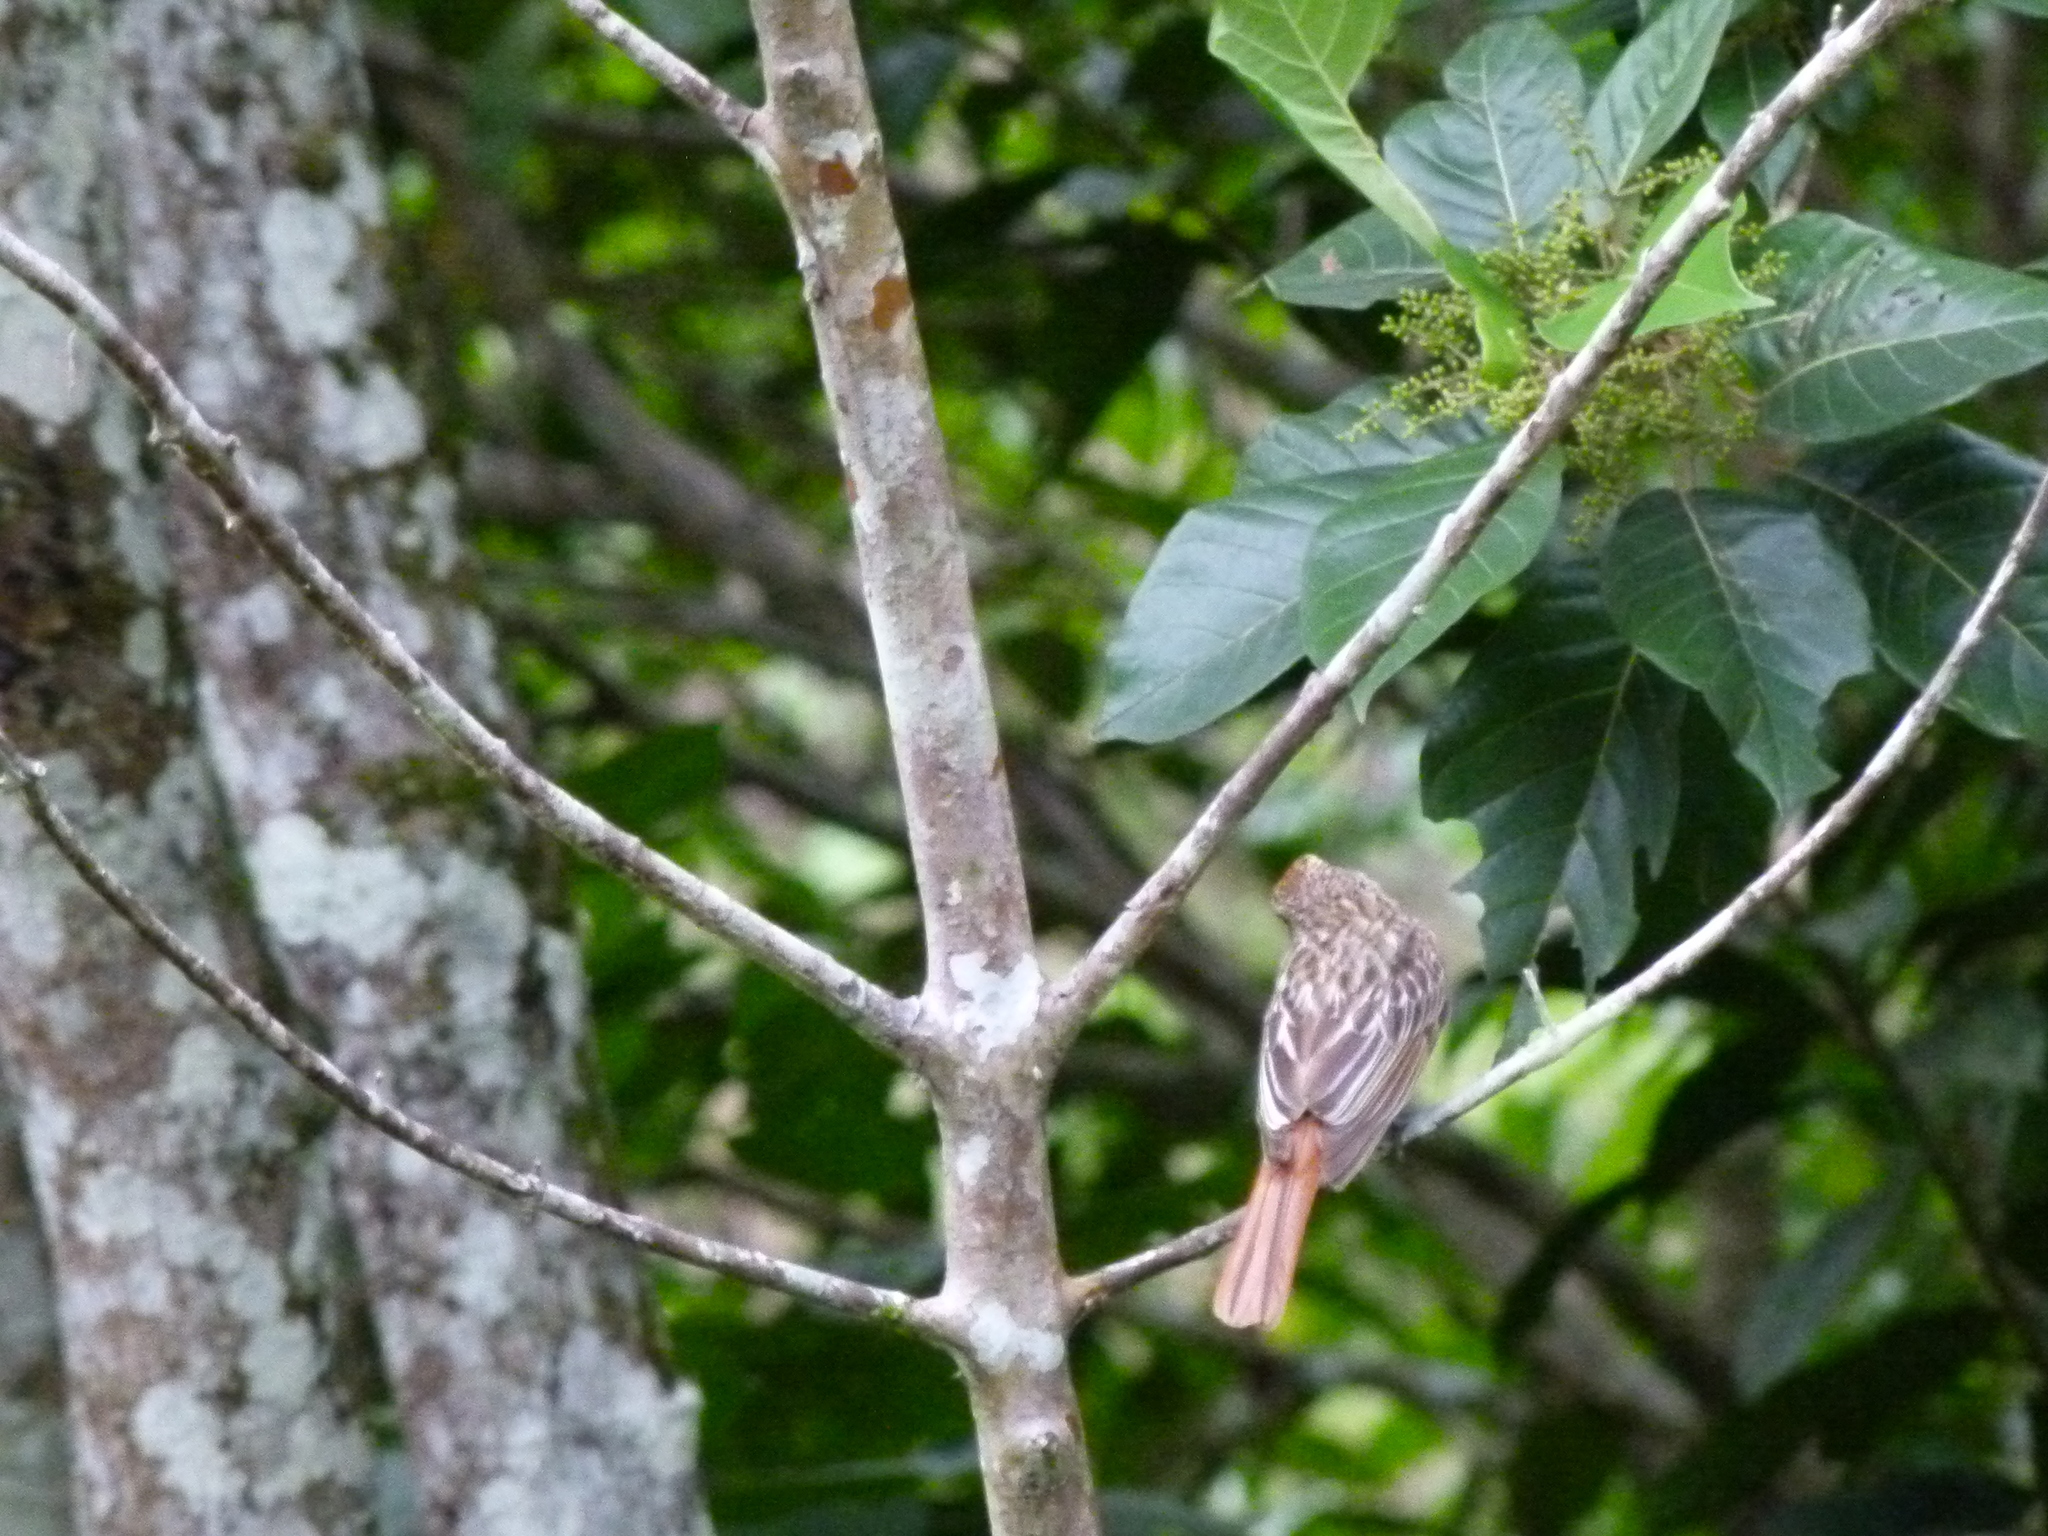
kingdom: Animalia
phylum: Chordata
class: Aves
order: Passeriformes
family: Tyrannidae
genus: Myiodynastes
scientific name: Myiodynastes maculatus
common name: Streaked flycatcher
